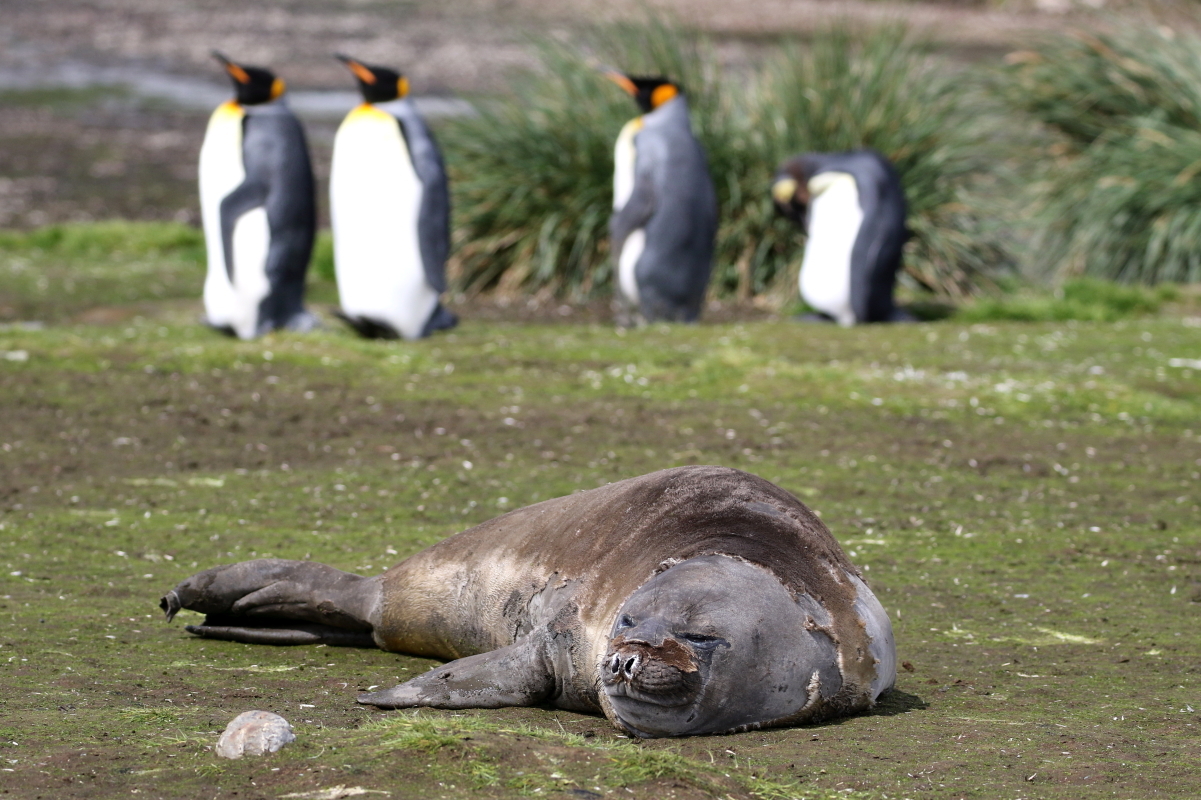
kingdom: Animalia
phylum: Chordata
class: Mammalia
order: Carnivora
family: Phocidae
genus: Mirounga
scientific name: Mirounga leonina
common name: Southern elephant seal
